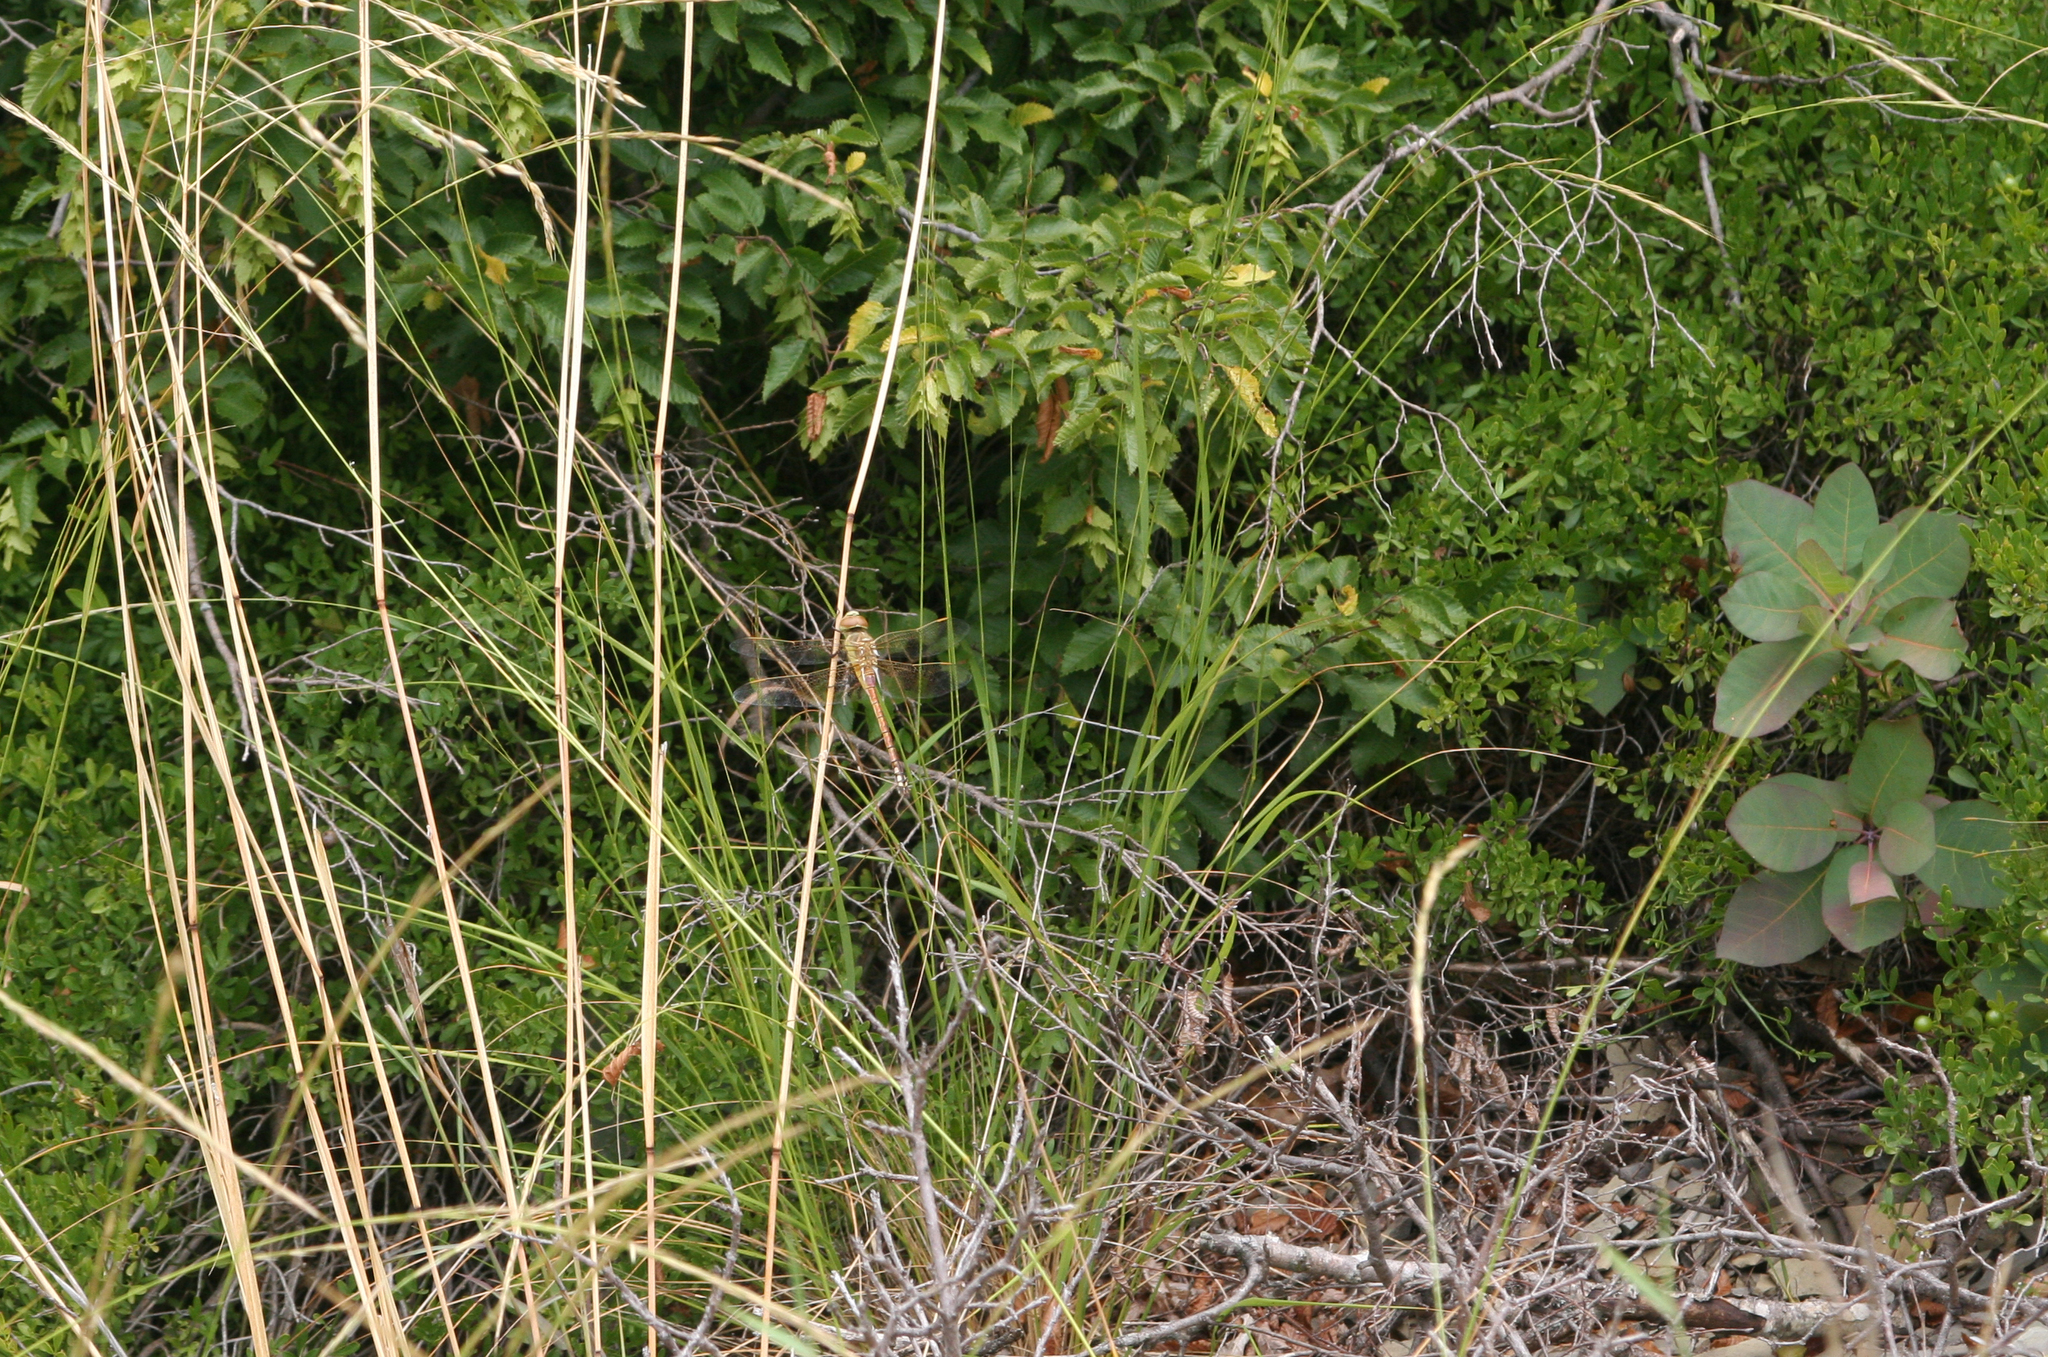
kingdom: Animalia
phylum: Arthropoda
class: Insecta
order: Odonata
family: Aeshnidae
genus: Anax
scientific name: Anax ephippiger
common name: Vagrant emperor
